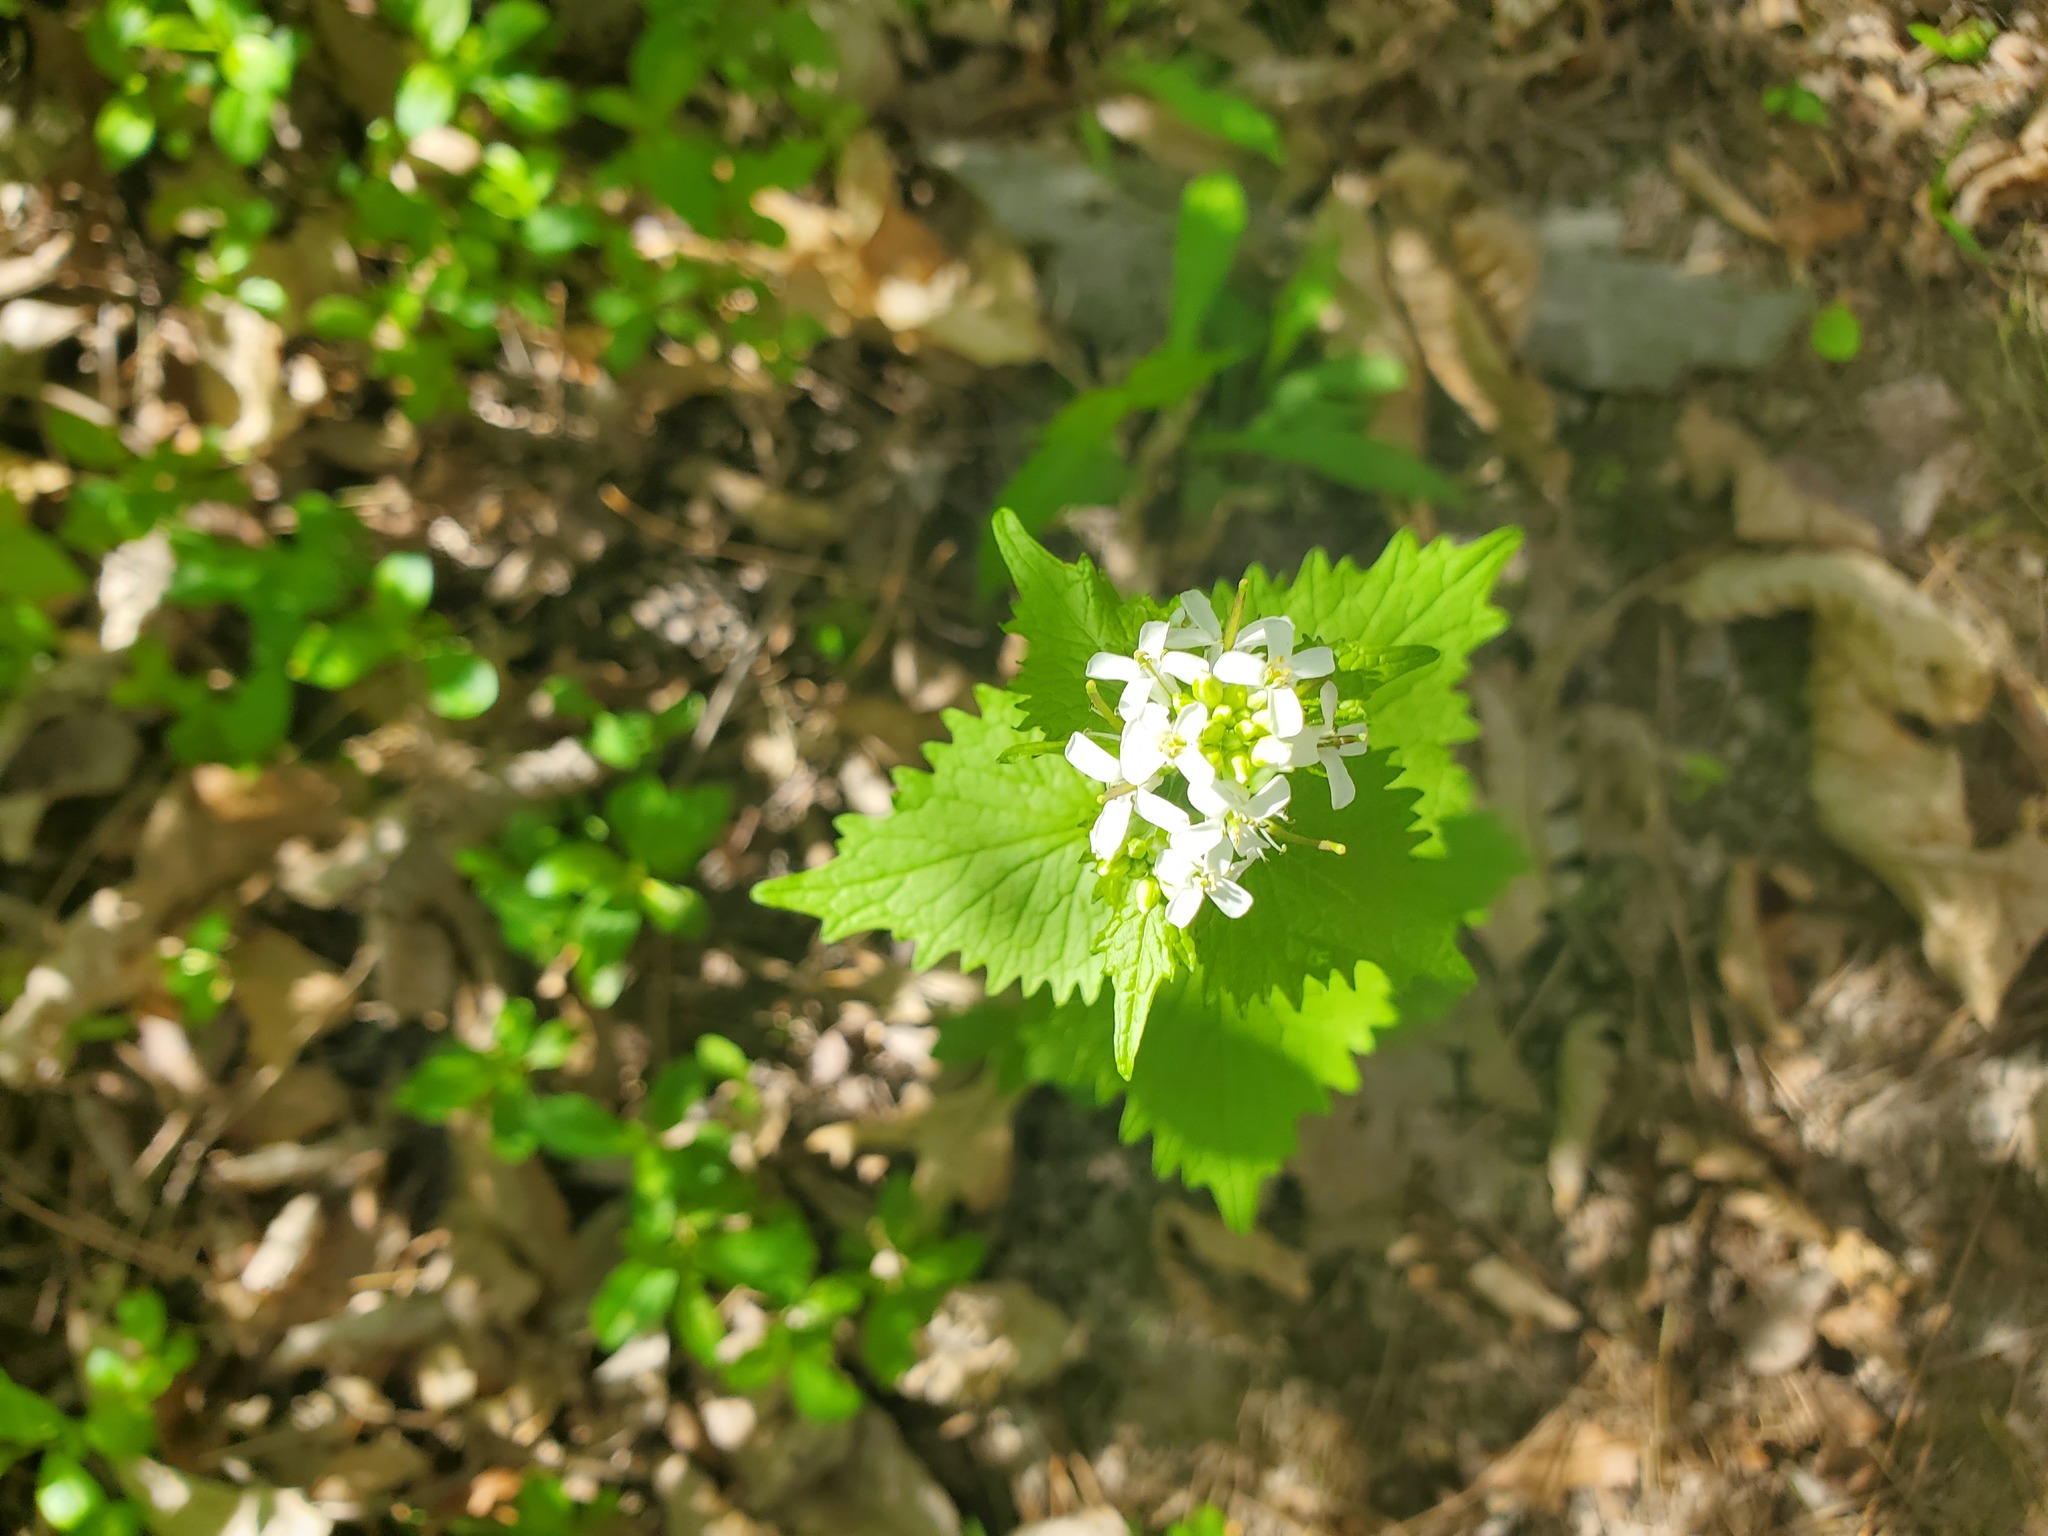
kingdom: Plantae
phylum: Tracheophyta
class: Magnoliopsida
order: Brassicales
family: Brassicaceae
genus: Alliaria
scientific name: Alliaria petiolata
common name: Garlic mustard
